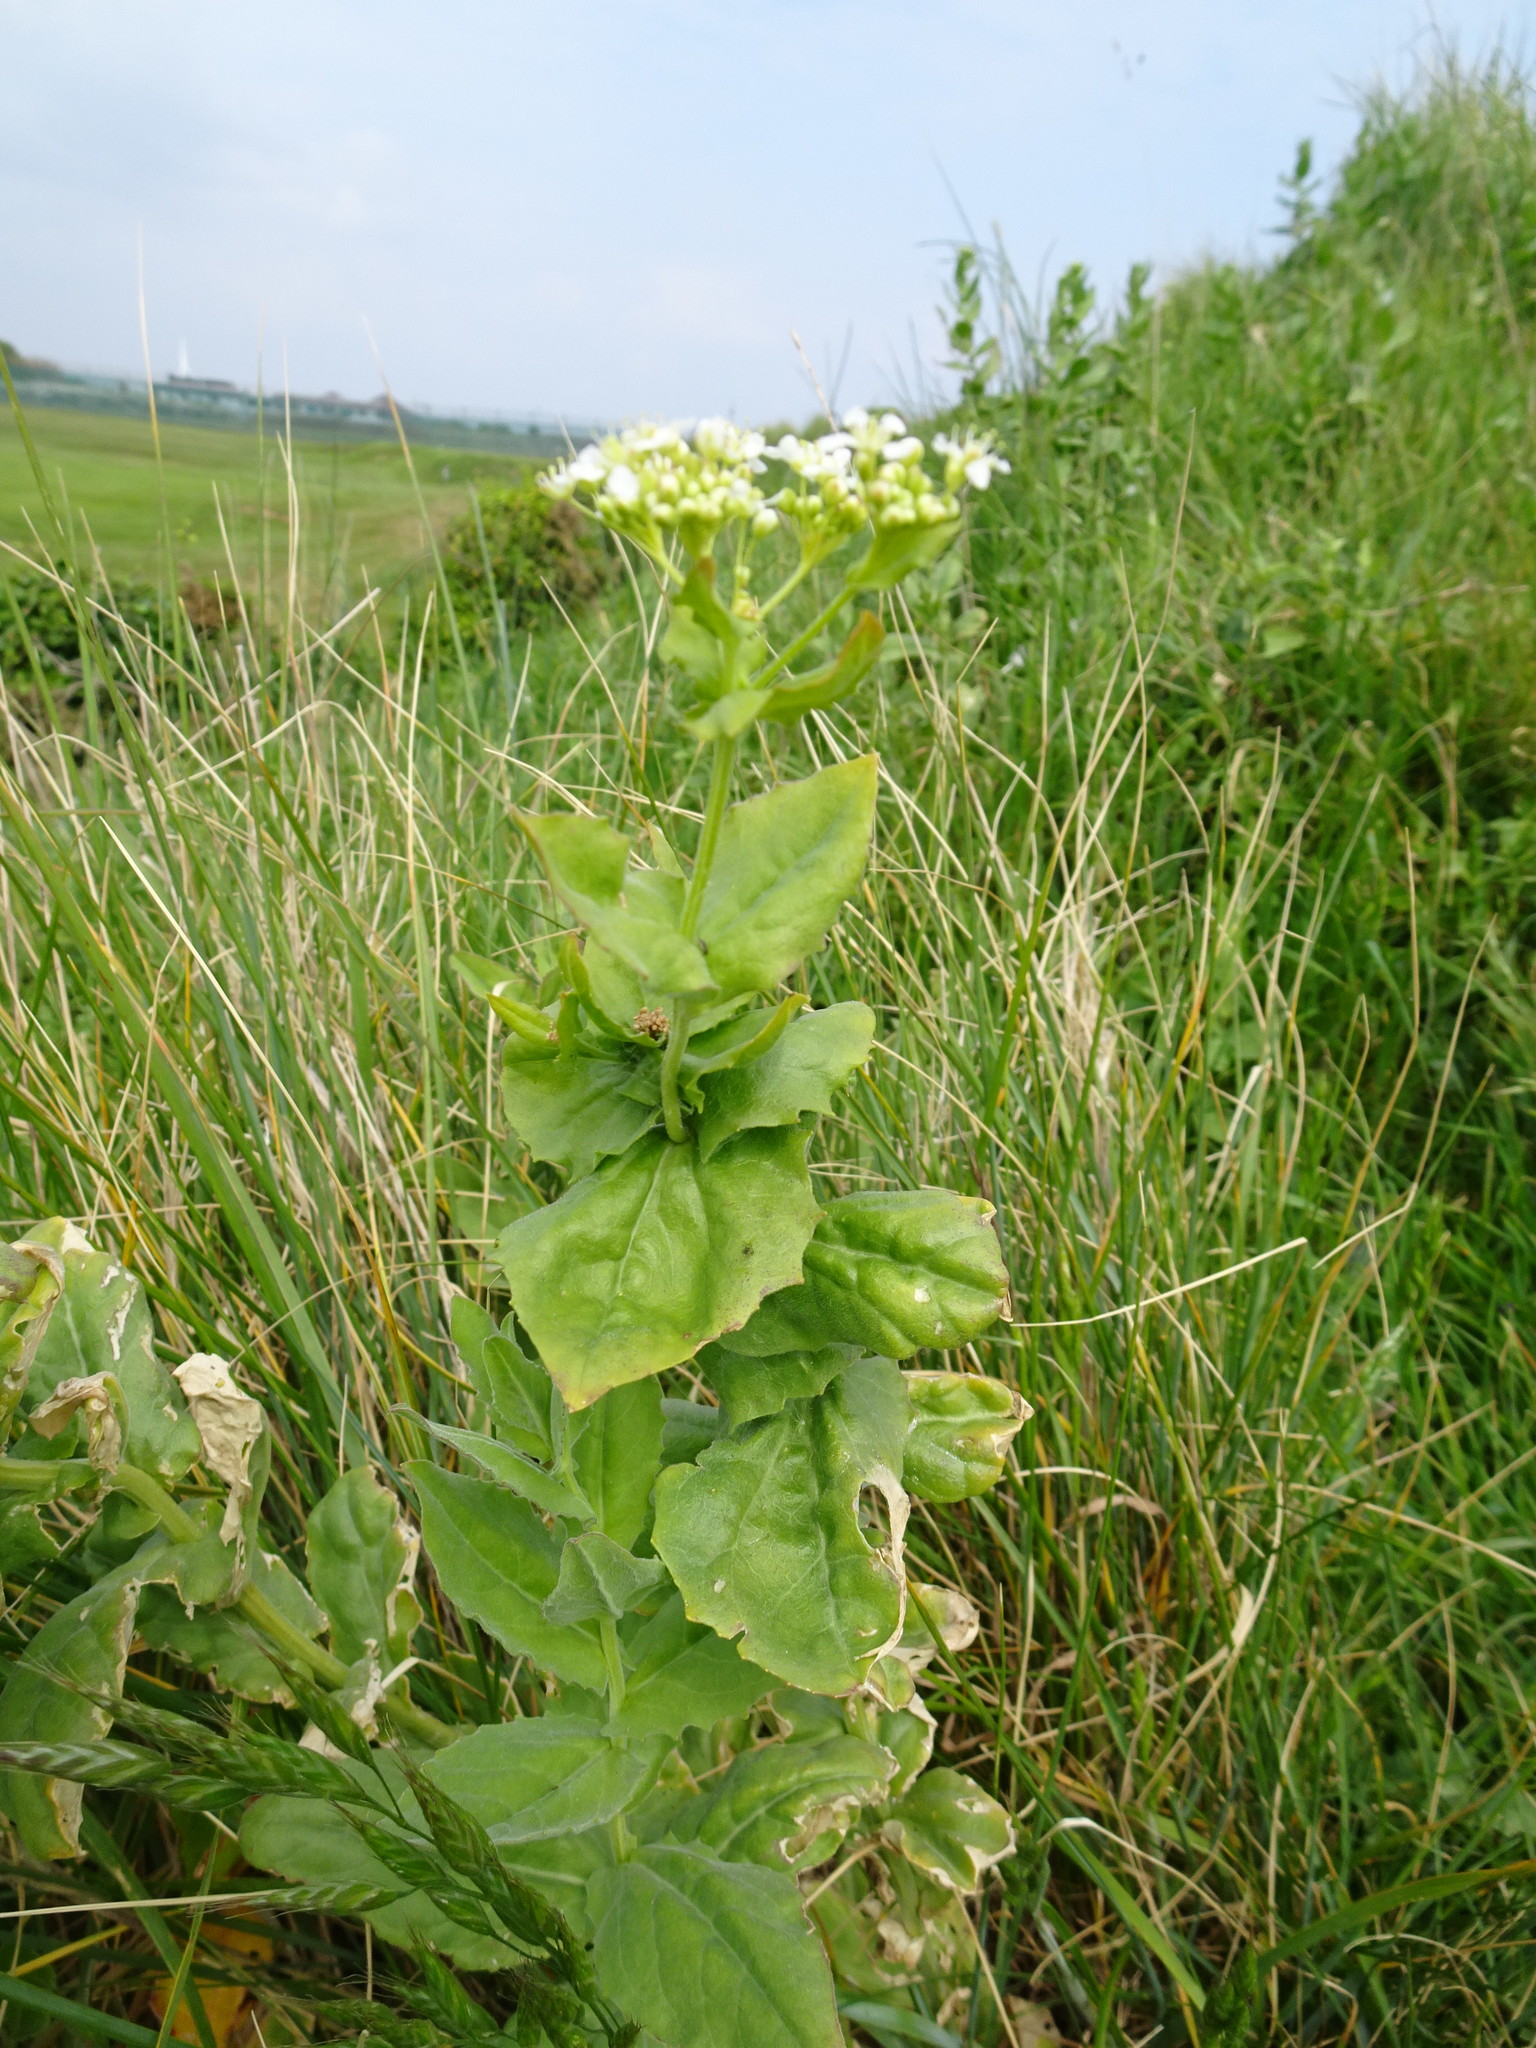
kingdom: Plantae
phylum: Tracheophyta
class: Magnoliopsida
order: Brassicales
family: Brassicaceae
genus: Lepidium
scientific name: Lepidium draba
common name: Hoary cress
